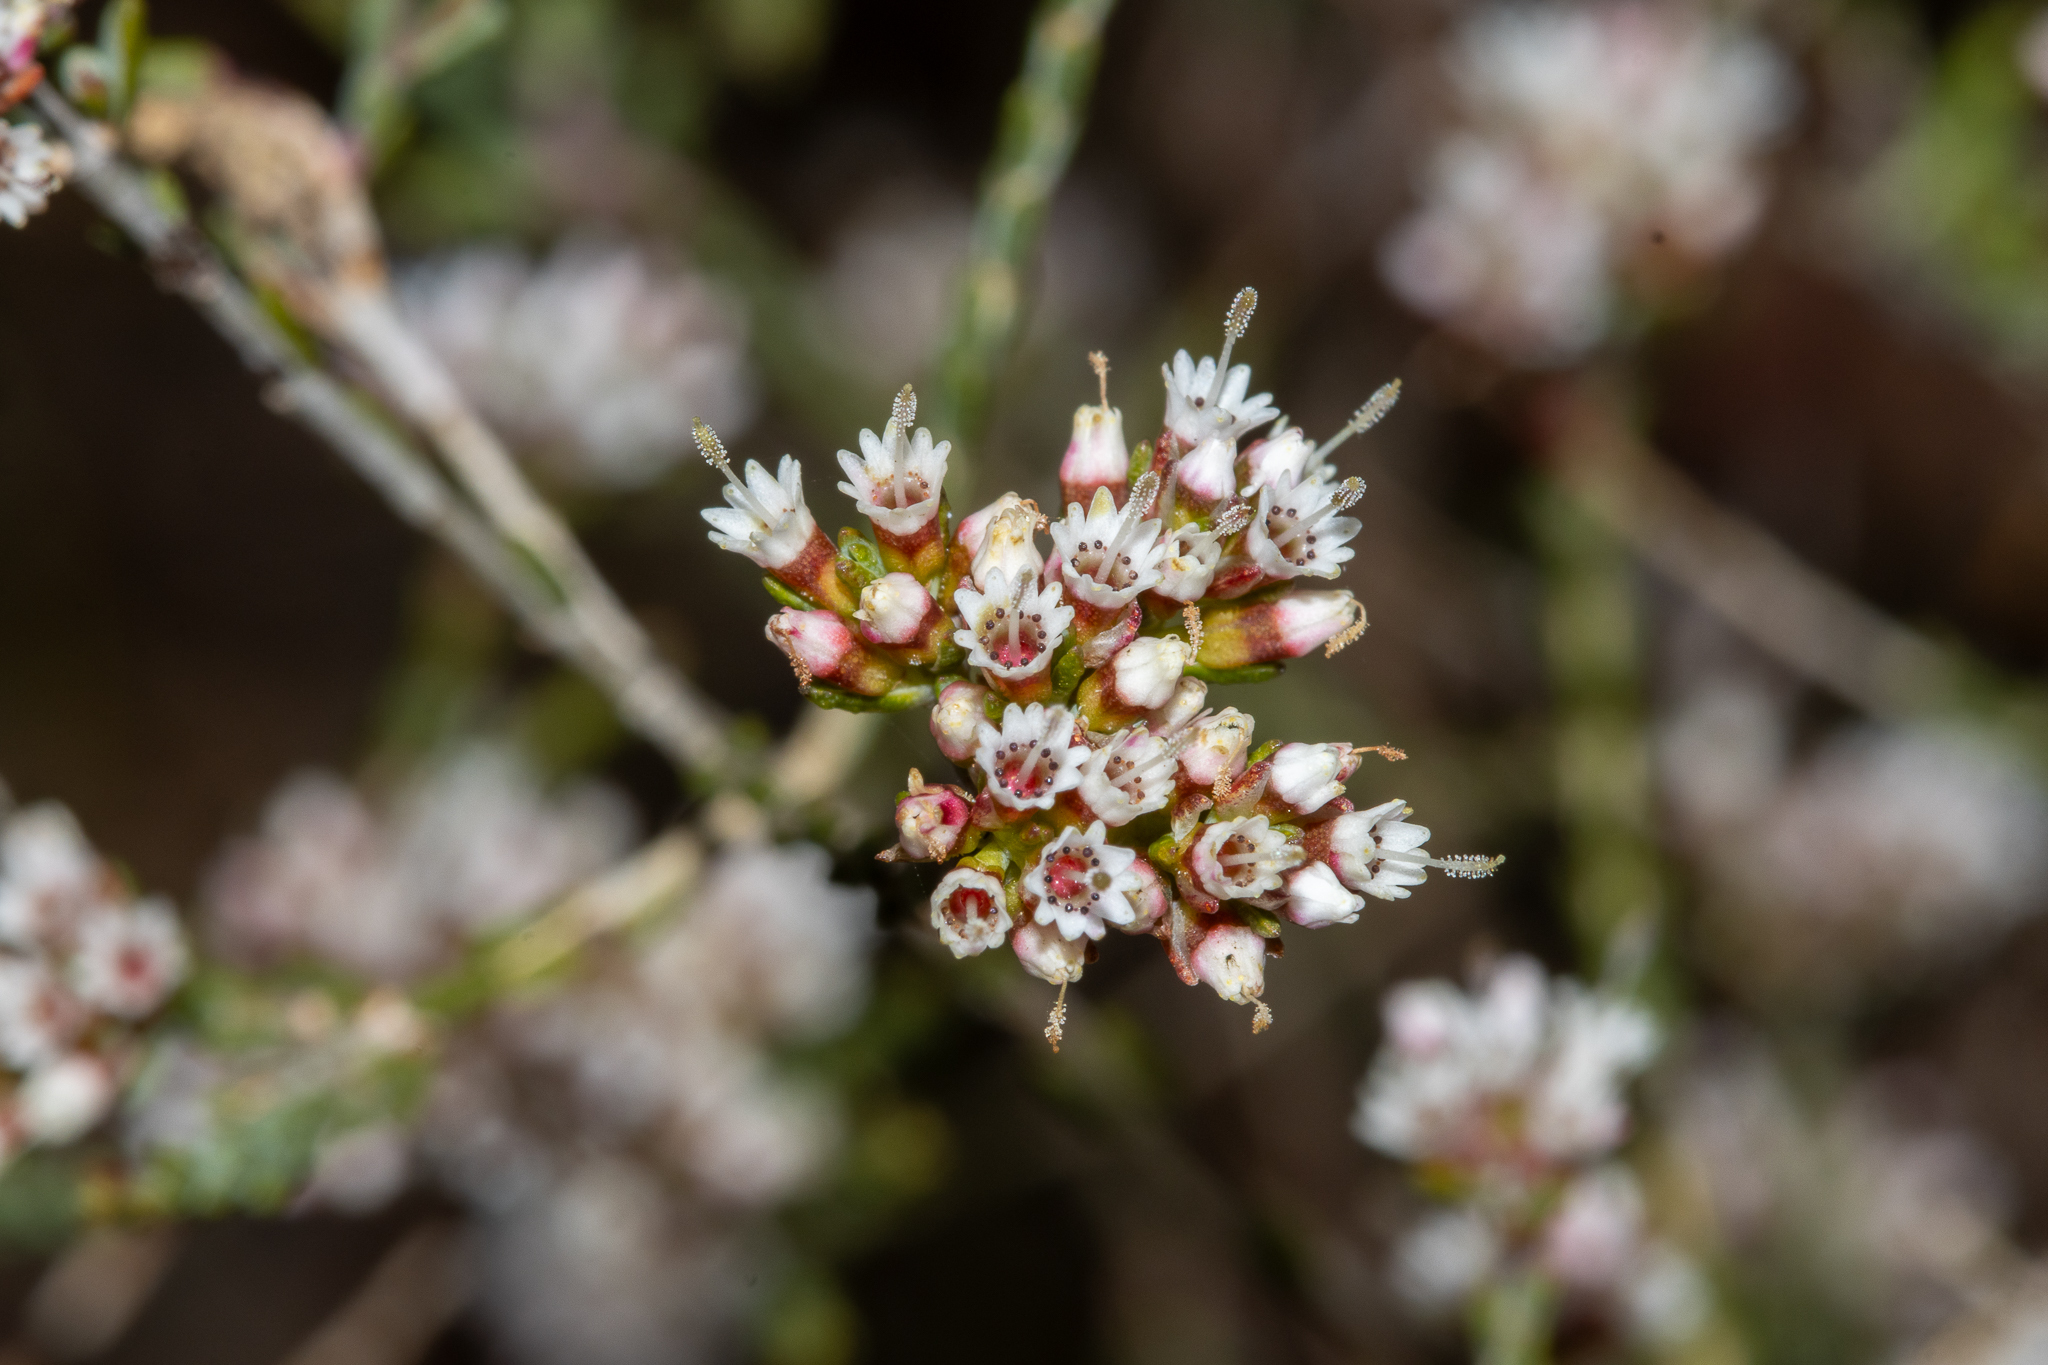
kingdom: Plantae
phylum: Tracheophyta
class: Magnoliopsida
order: Myrtales
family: Myrtaceae
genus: Darwinia
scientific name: Darwinia micropetala
